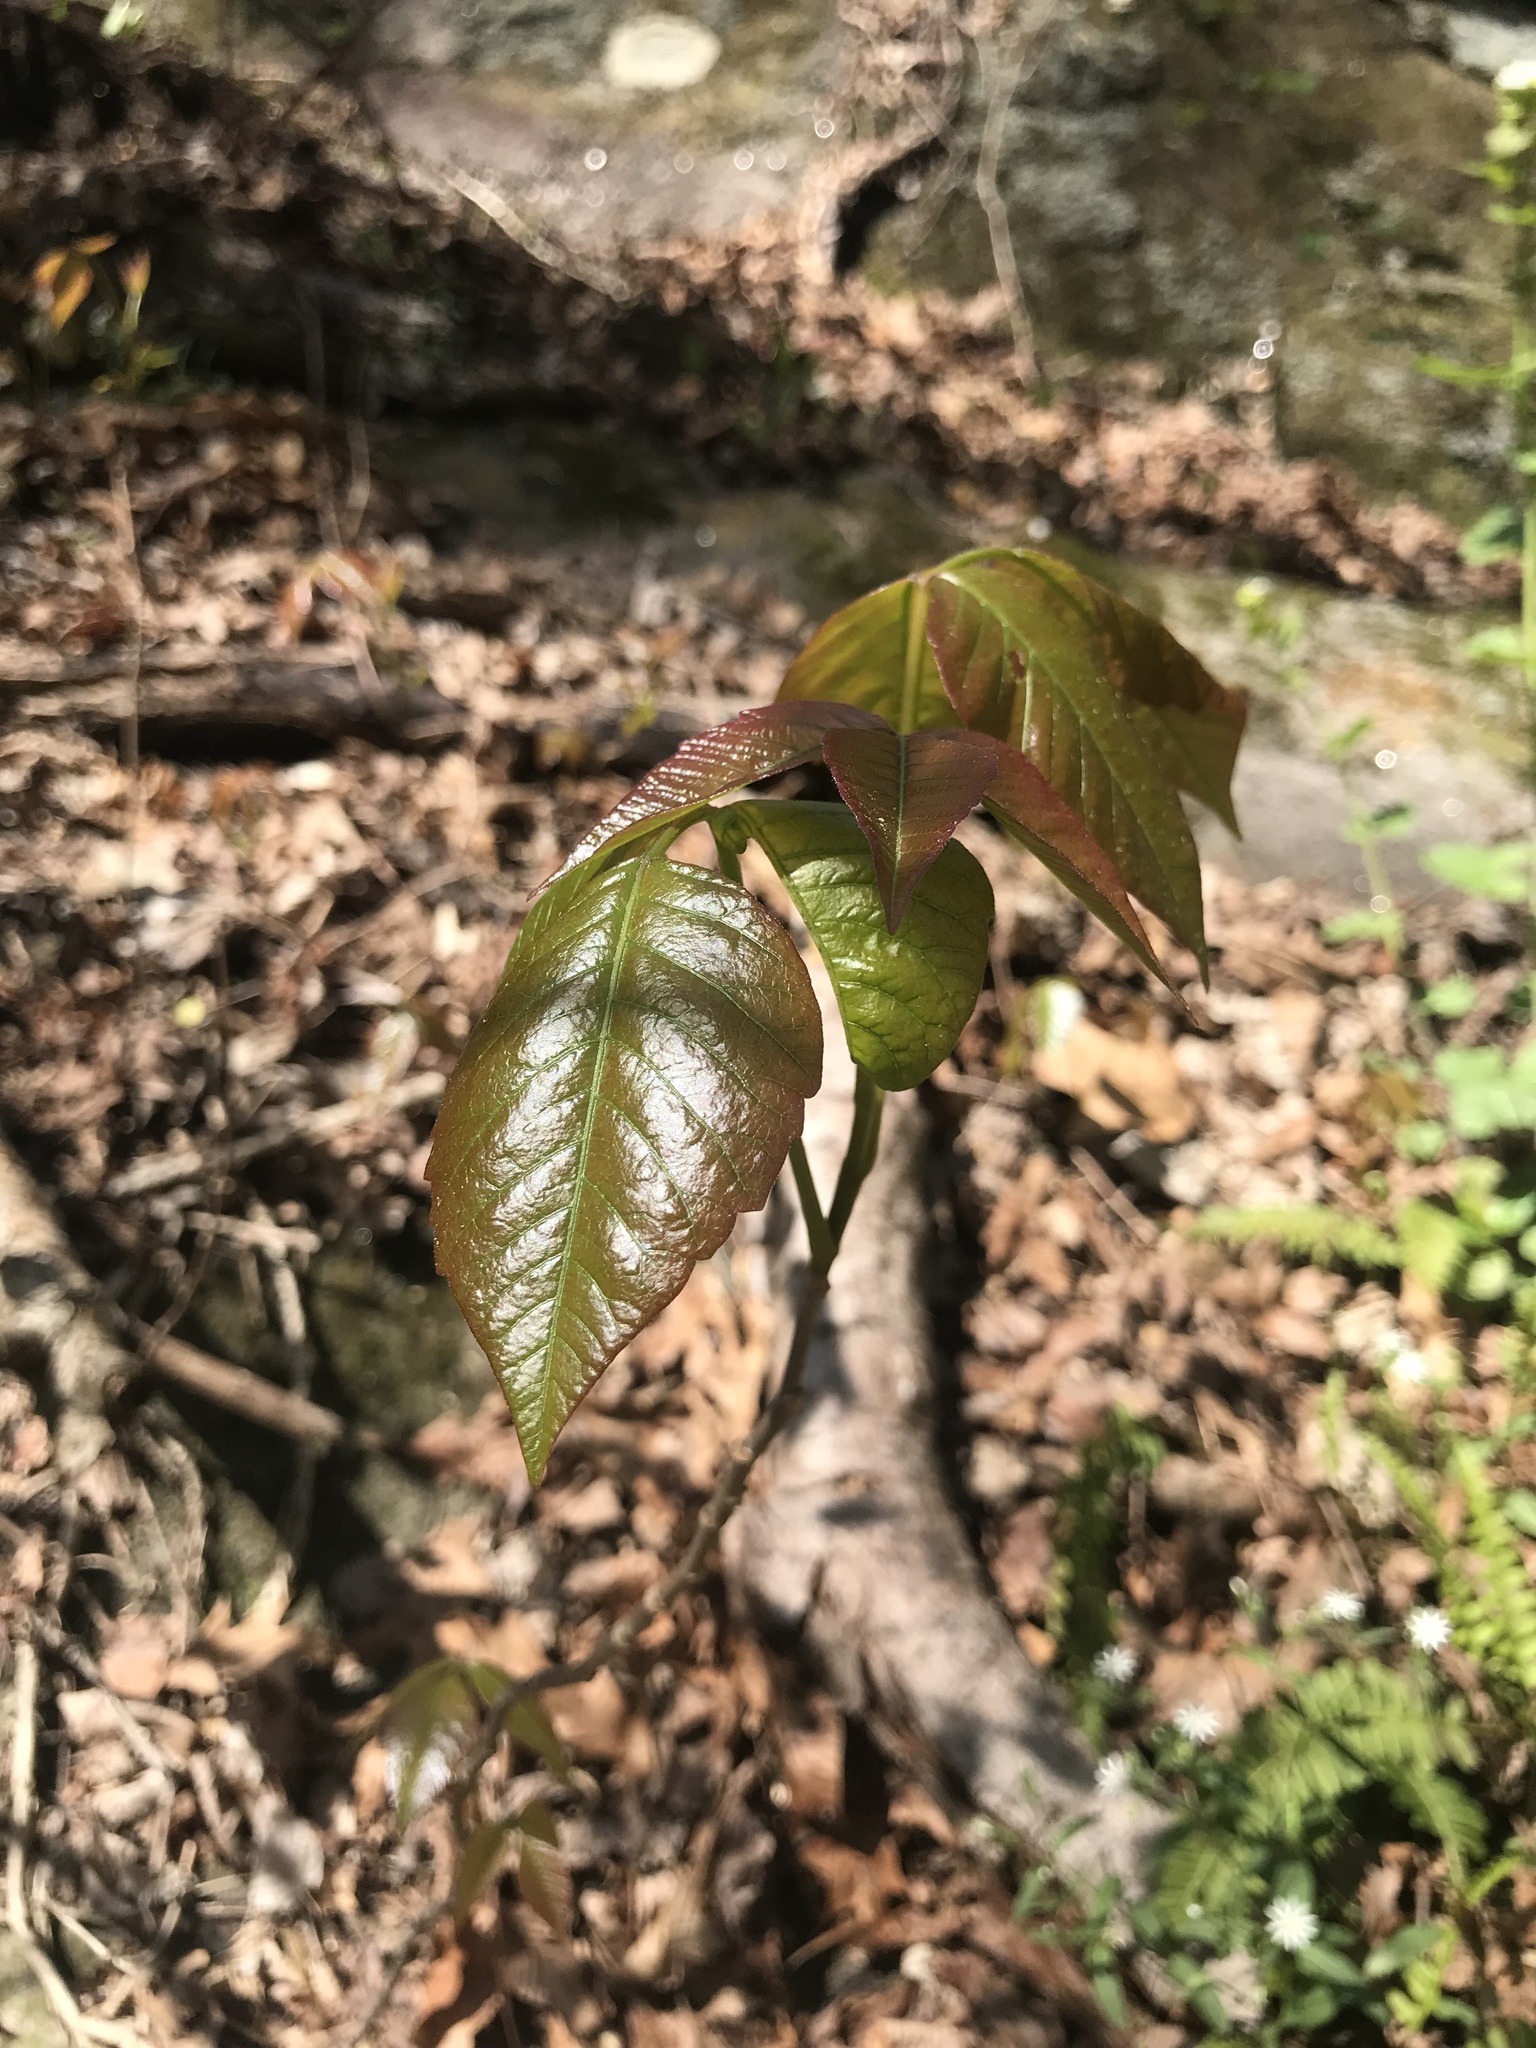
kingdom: Plantae
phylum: Tracheophyta
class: Magnoliopsida
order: Sapindales
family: Anacardiaceae
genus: Toxicodendron
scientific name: Toxicodendron radicans
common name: Poison ivy
